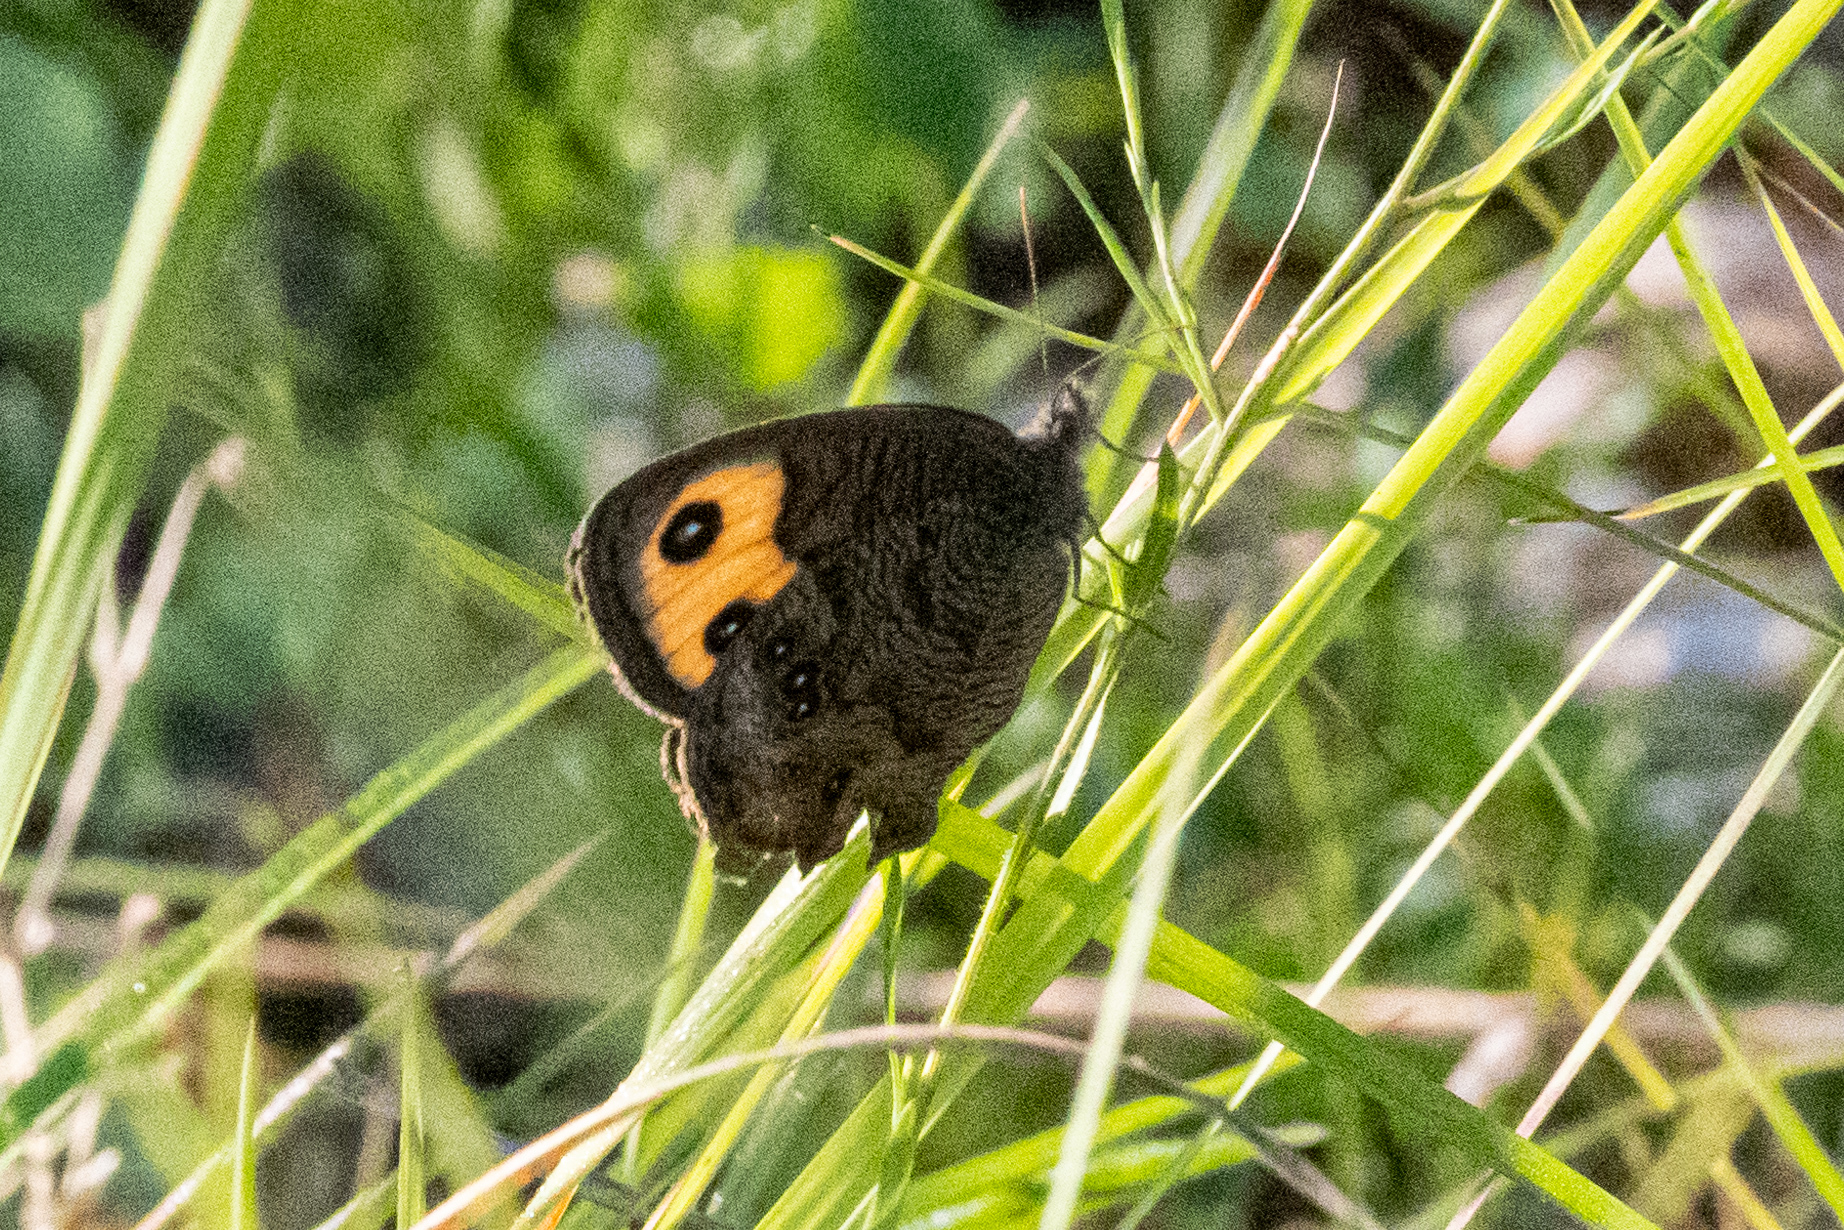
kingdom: Animalia
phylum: Arthropoda
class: Insecta
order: Lepidoptera
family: Nymphalidae
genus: Cercyonis
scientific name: Cercyonis pegala
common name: Common wood-nymph
